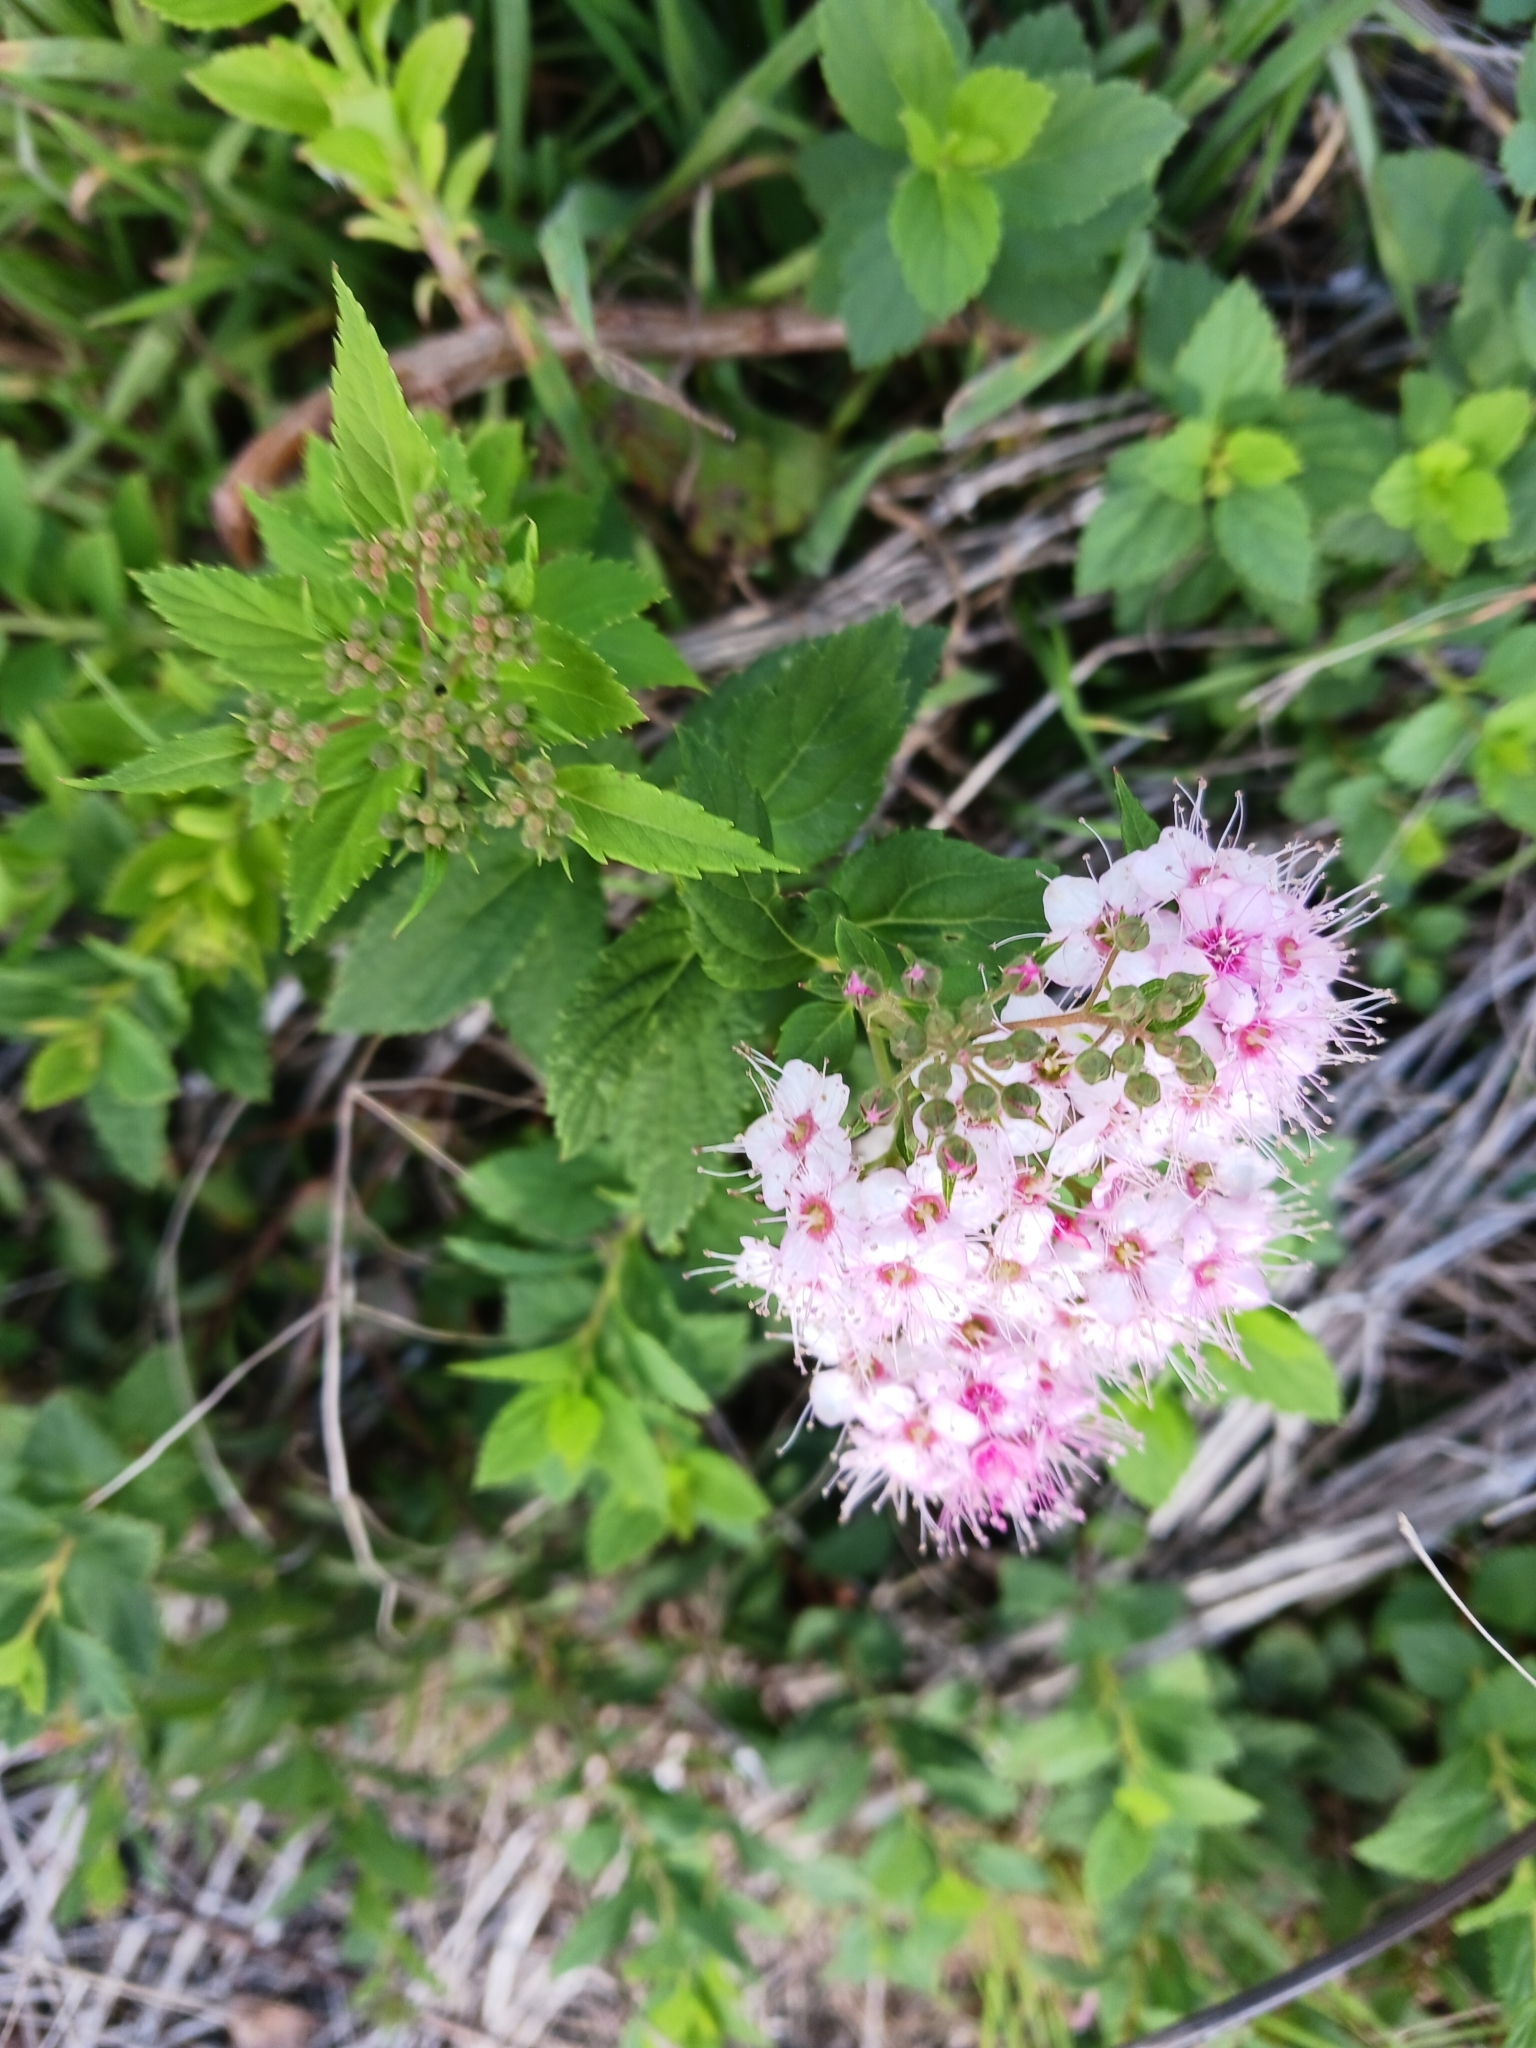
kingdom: Plantae
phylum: Tracheophyta
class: Magnoliopsida
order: Rosales
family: Rosaceae
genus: Spiraea
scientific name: Spiraea japonica
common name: Japanese spiraea
